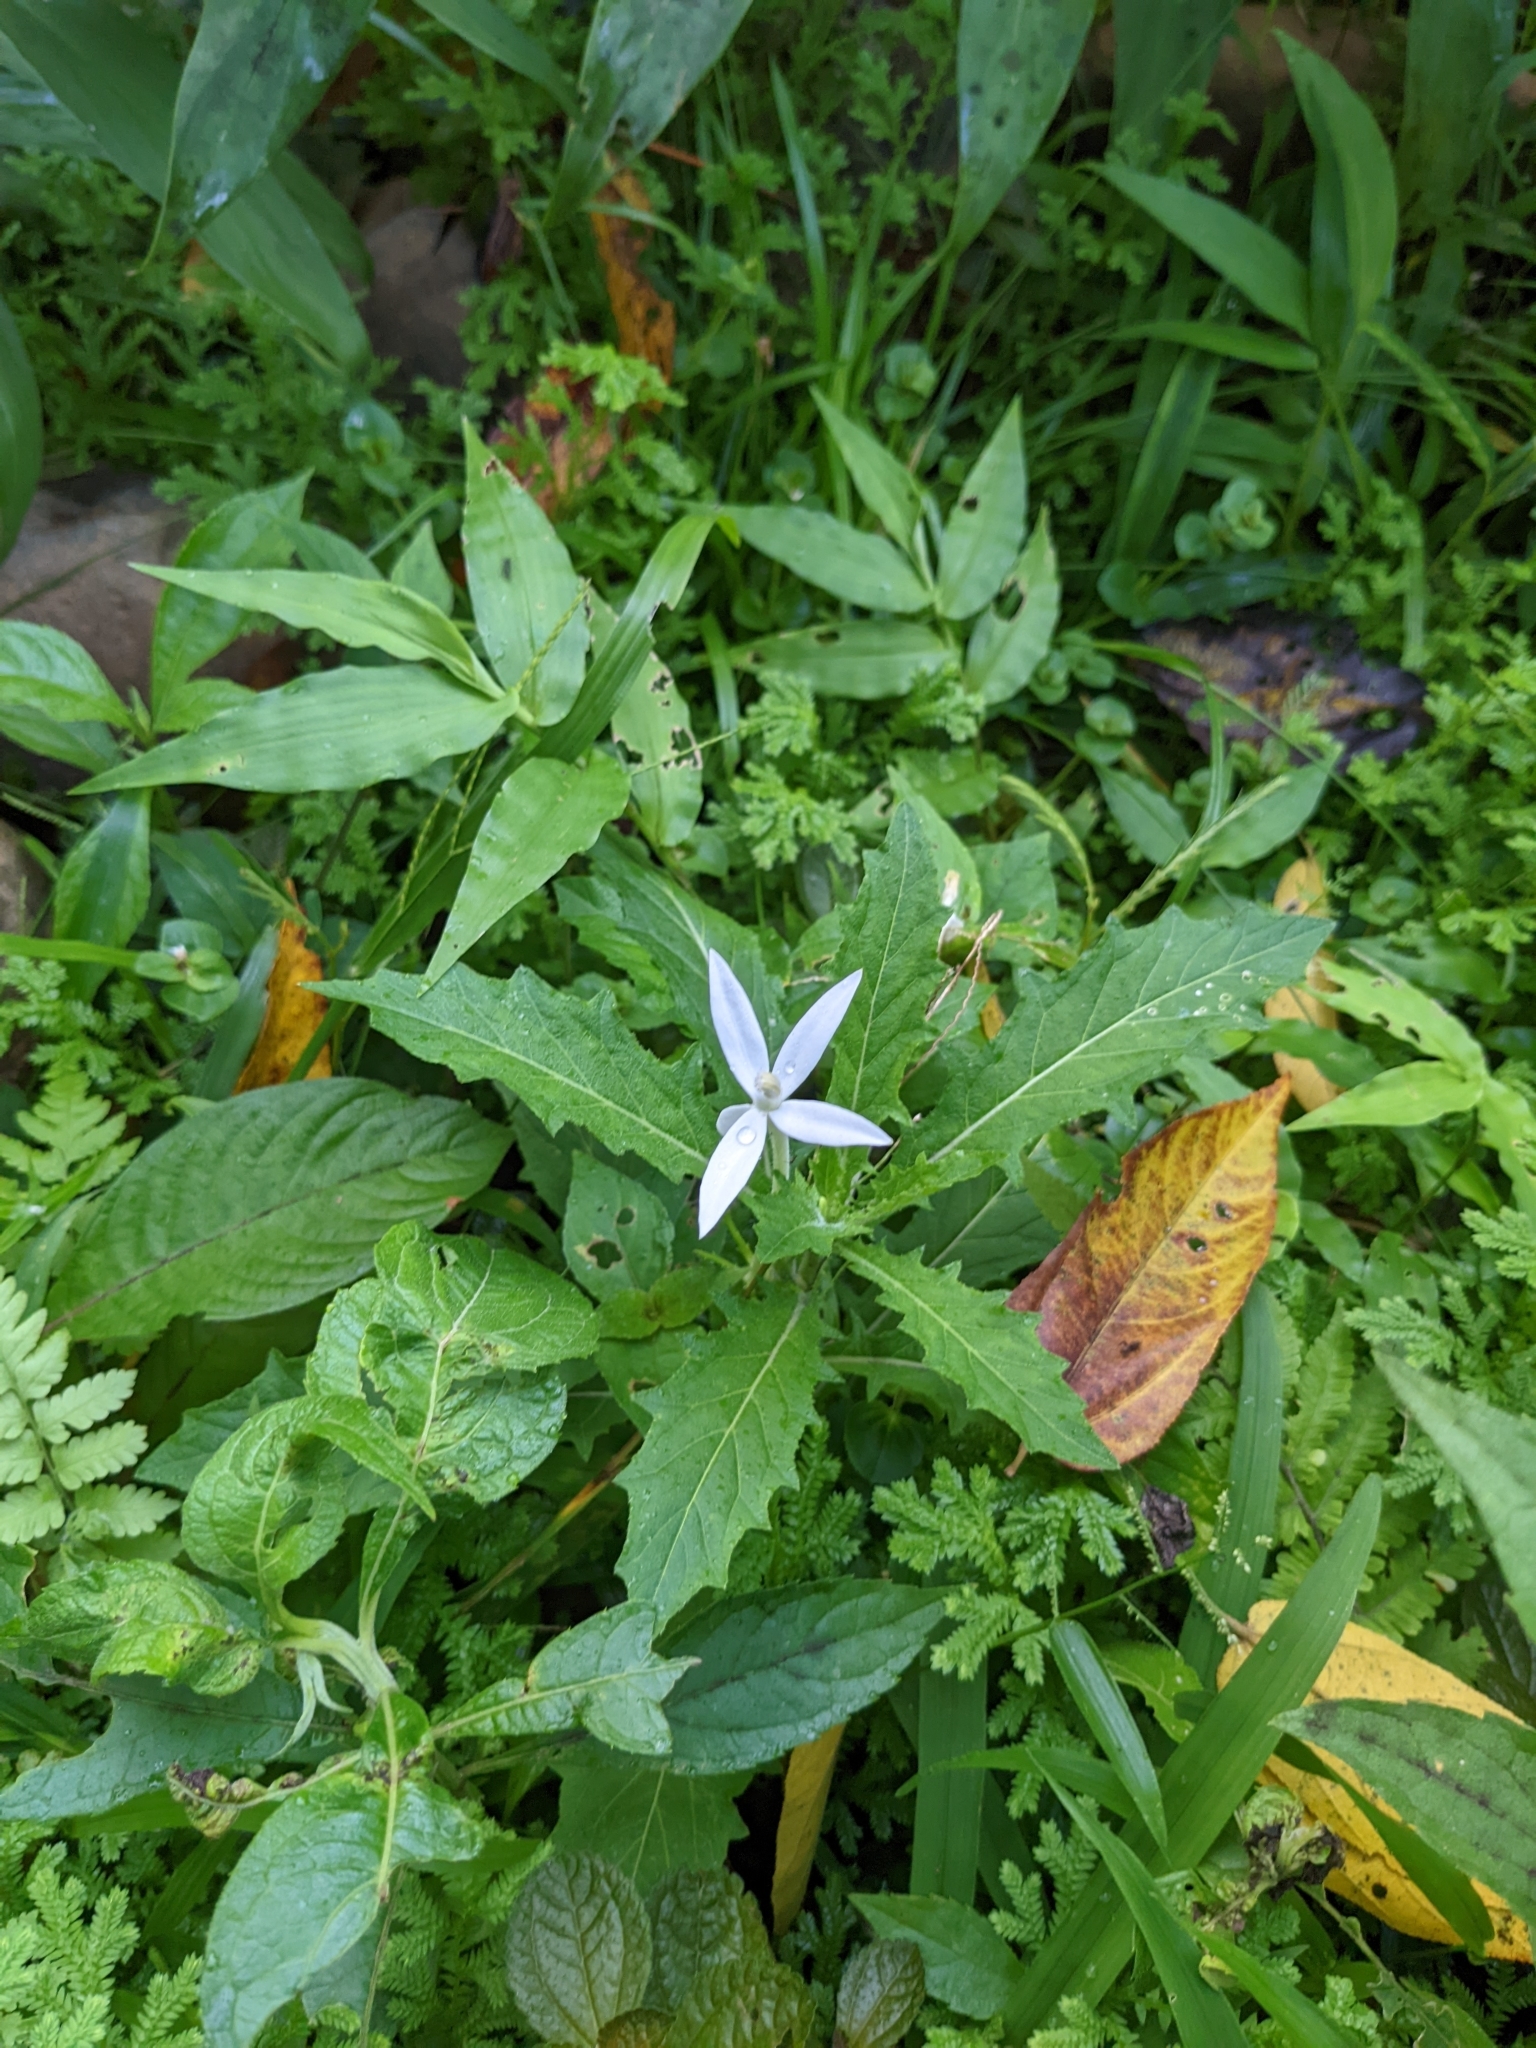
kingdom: Plantae
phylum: Tracheophyta
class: Magnoliopsida
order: Asterales
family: Campanulaceae
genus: Hippobroma
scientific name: Hippobroma longiflora
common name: Madamfate
